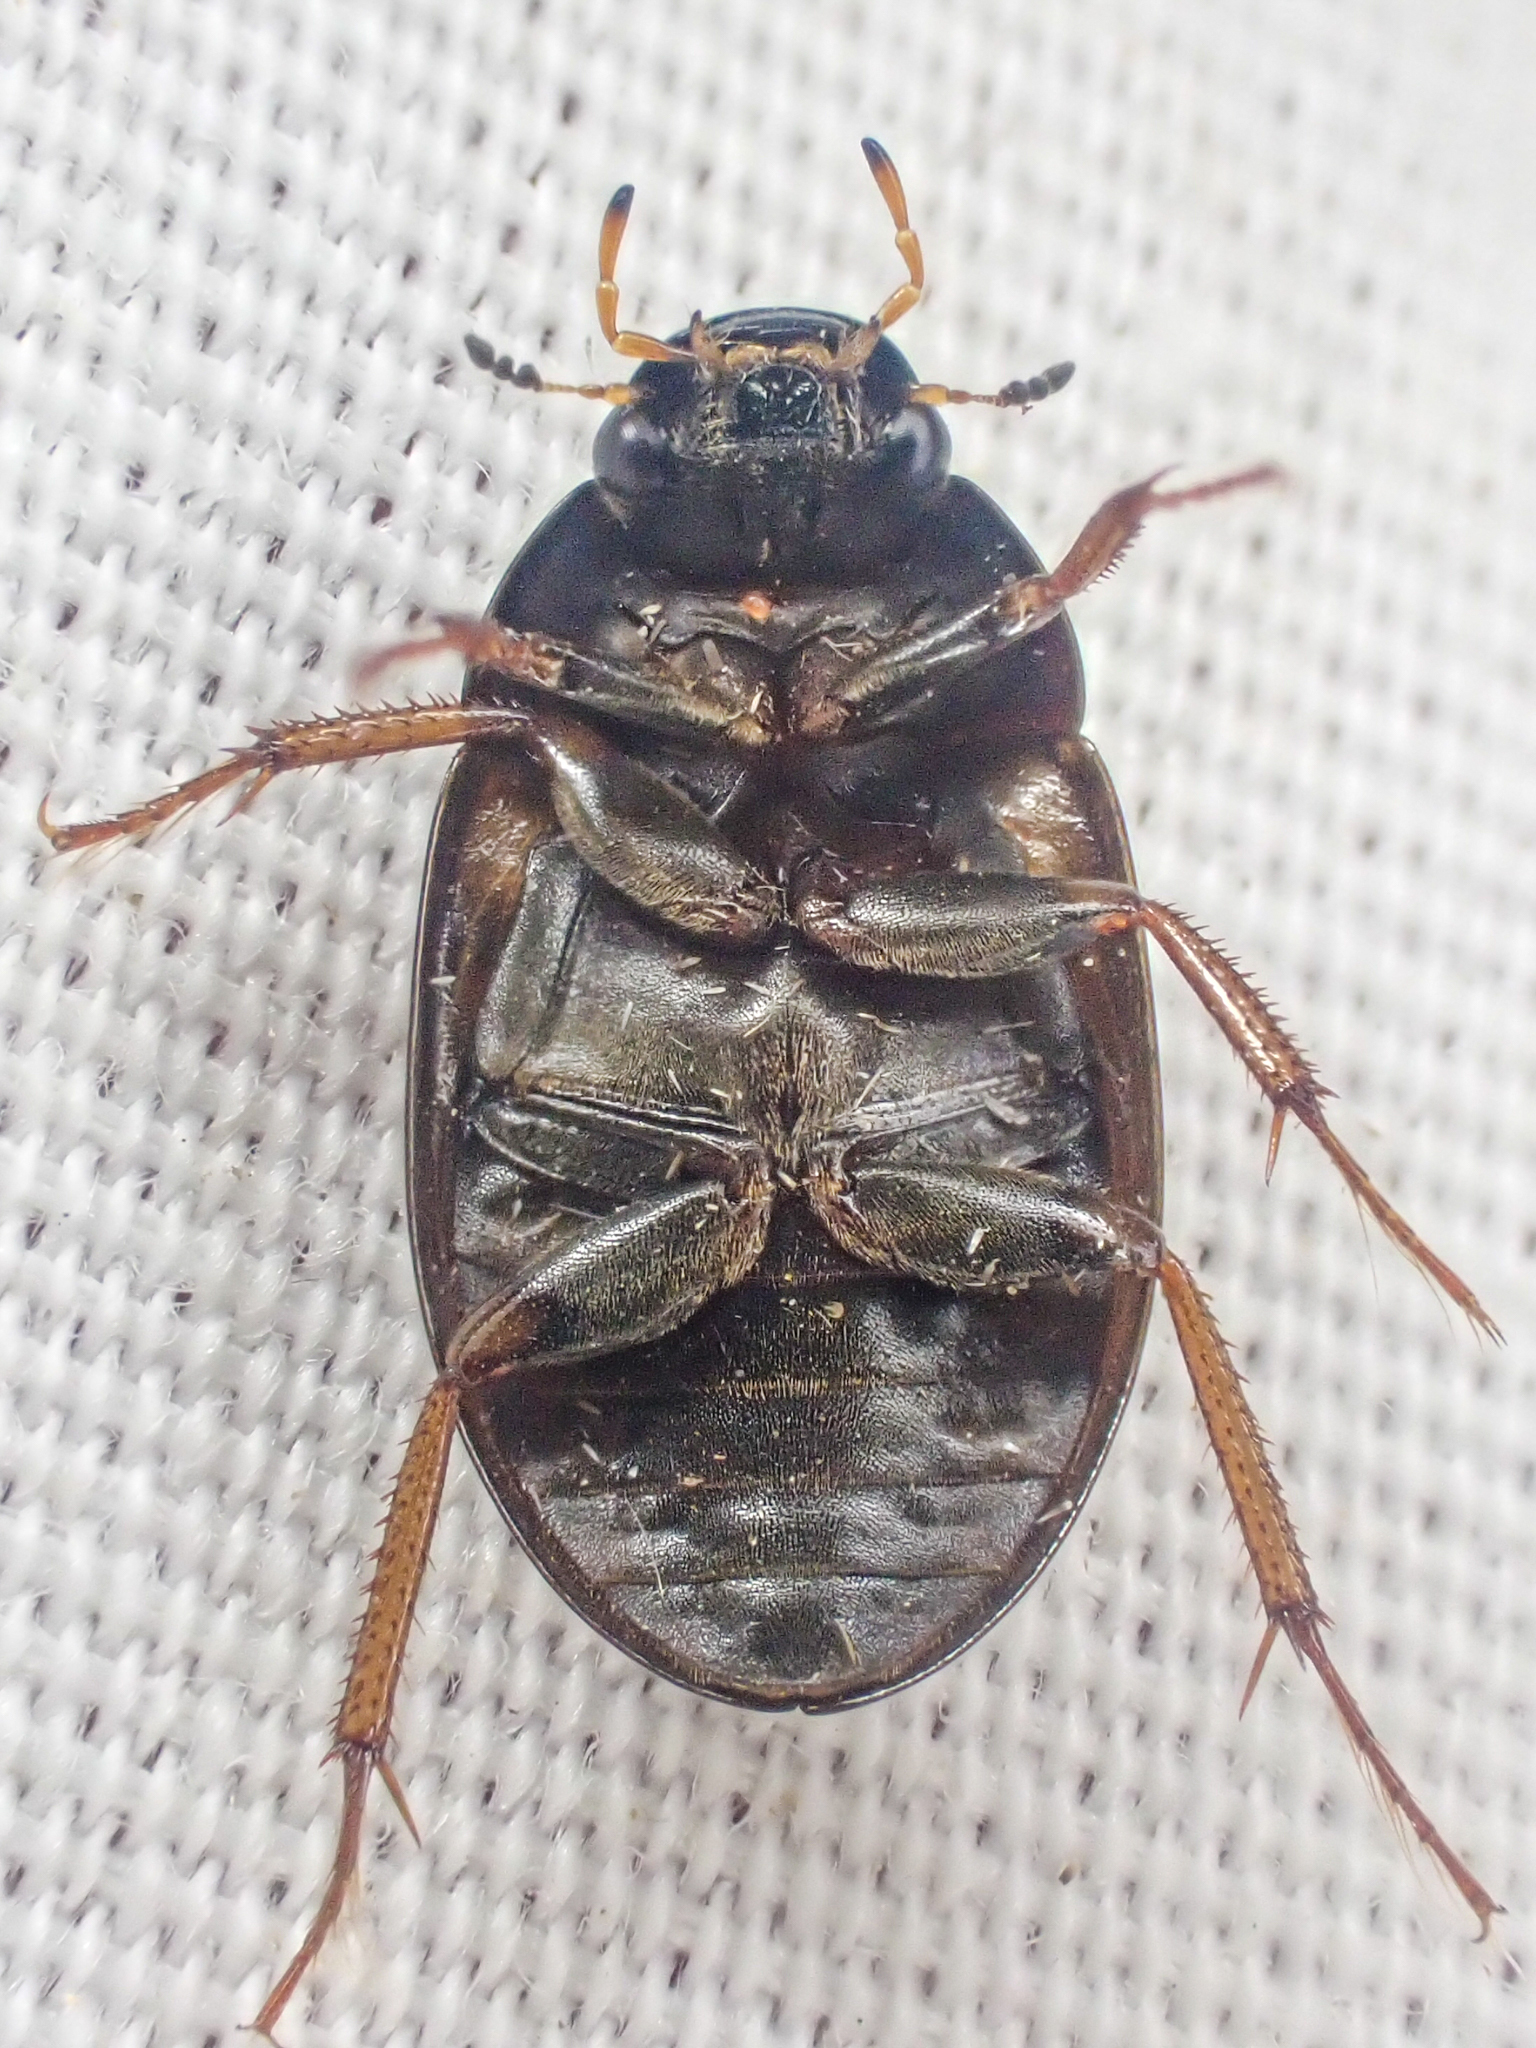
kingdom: Animalia
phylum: Arthropoda
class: Insecta
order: Coleoptera
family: Hydrophilidae
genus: Hydrobius
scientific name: Hydrobius fuscipes
